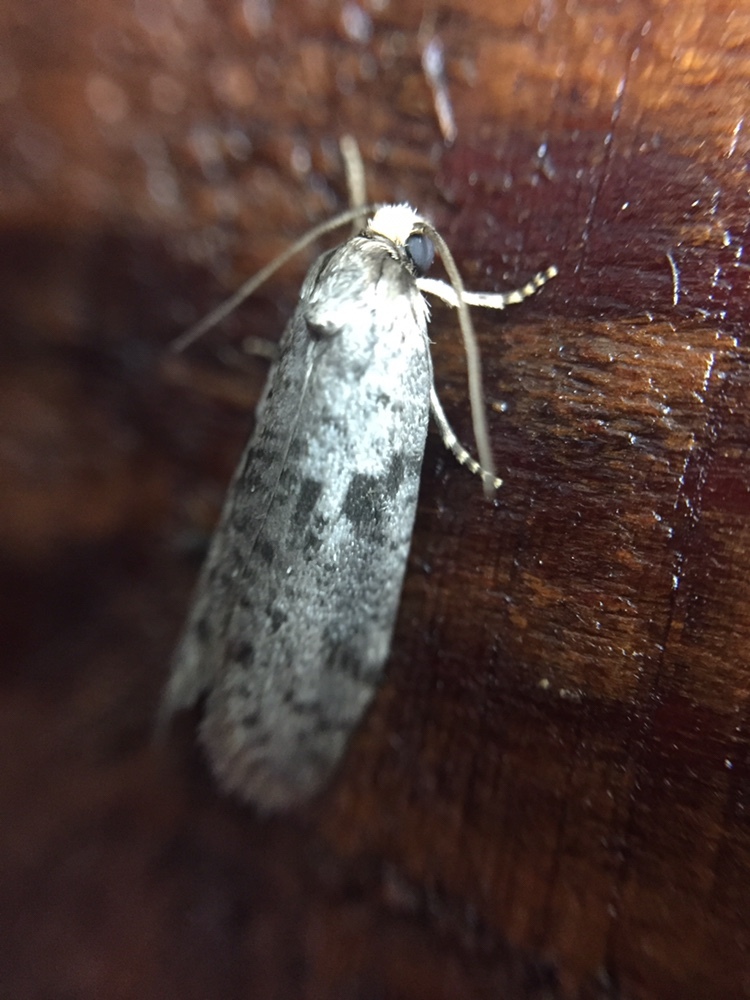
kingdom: Animalia
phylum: Arthropoda
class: Insecta
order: Lepidoptera
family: Psychidae
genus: Lepidoscia
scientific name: Lepidoscia protorna
